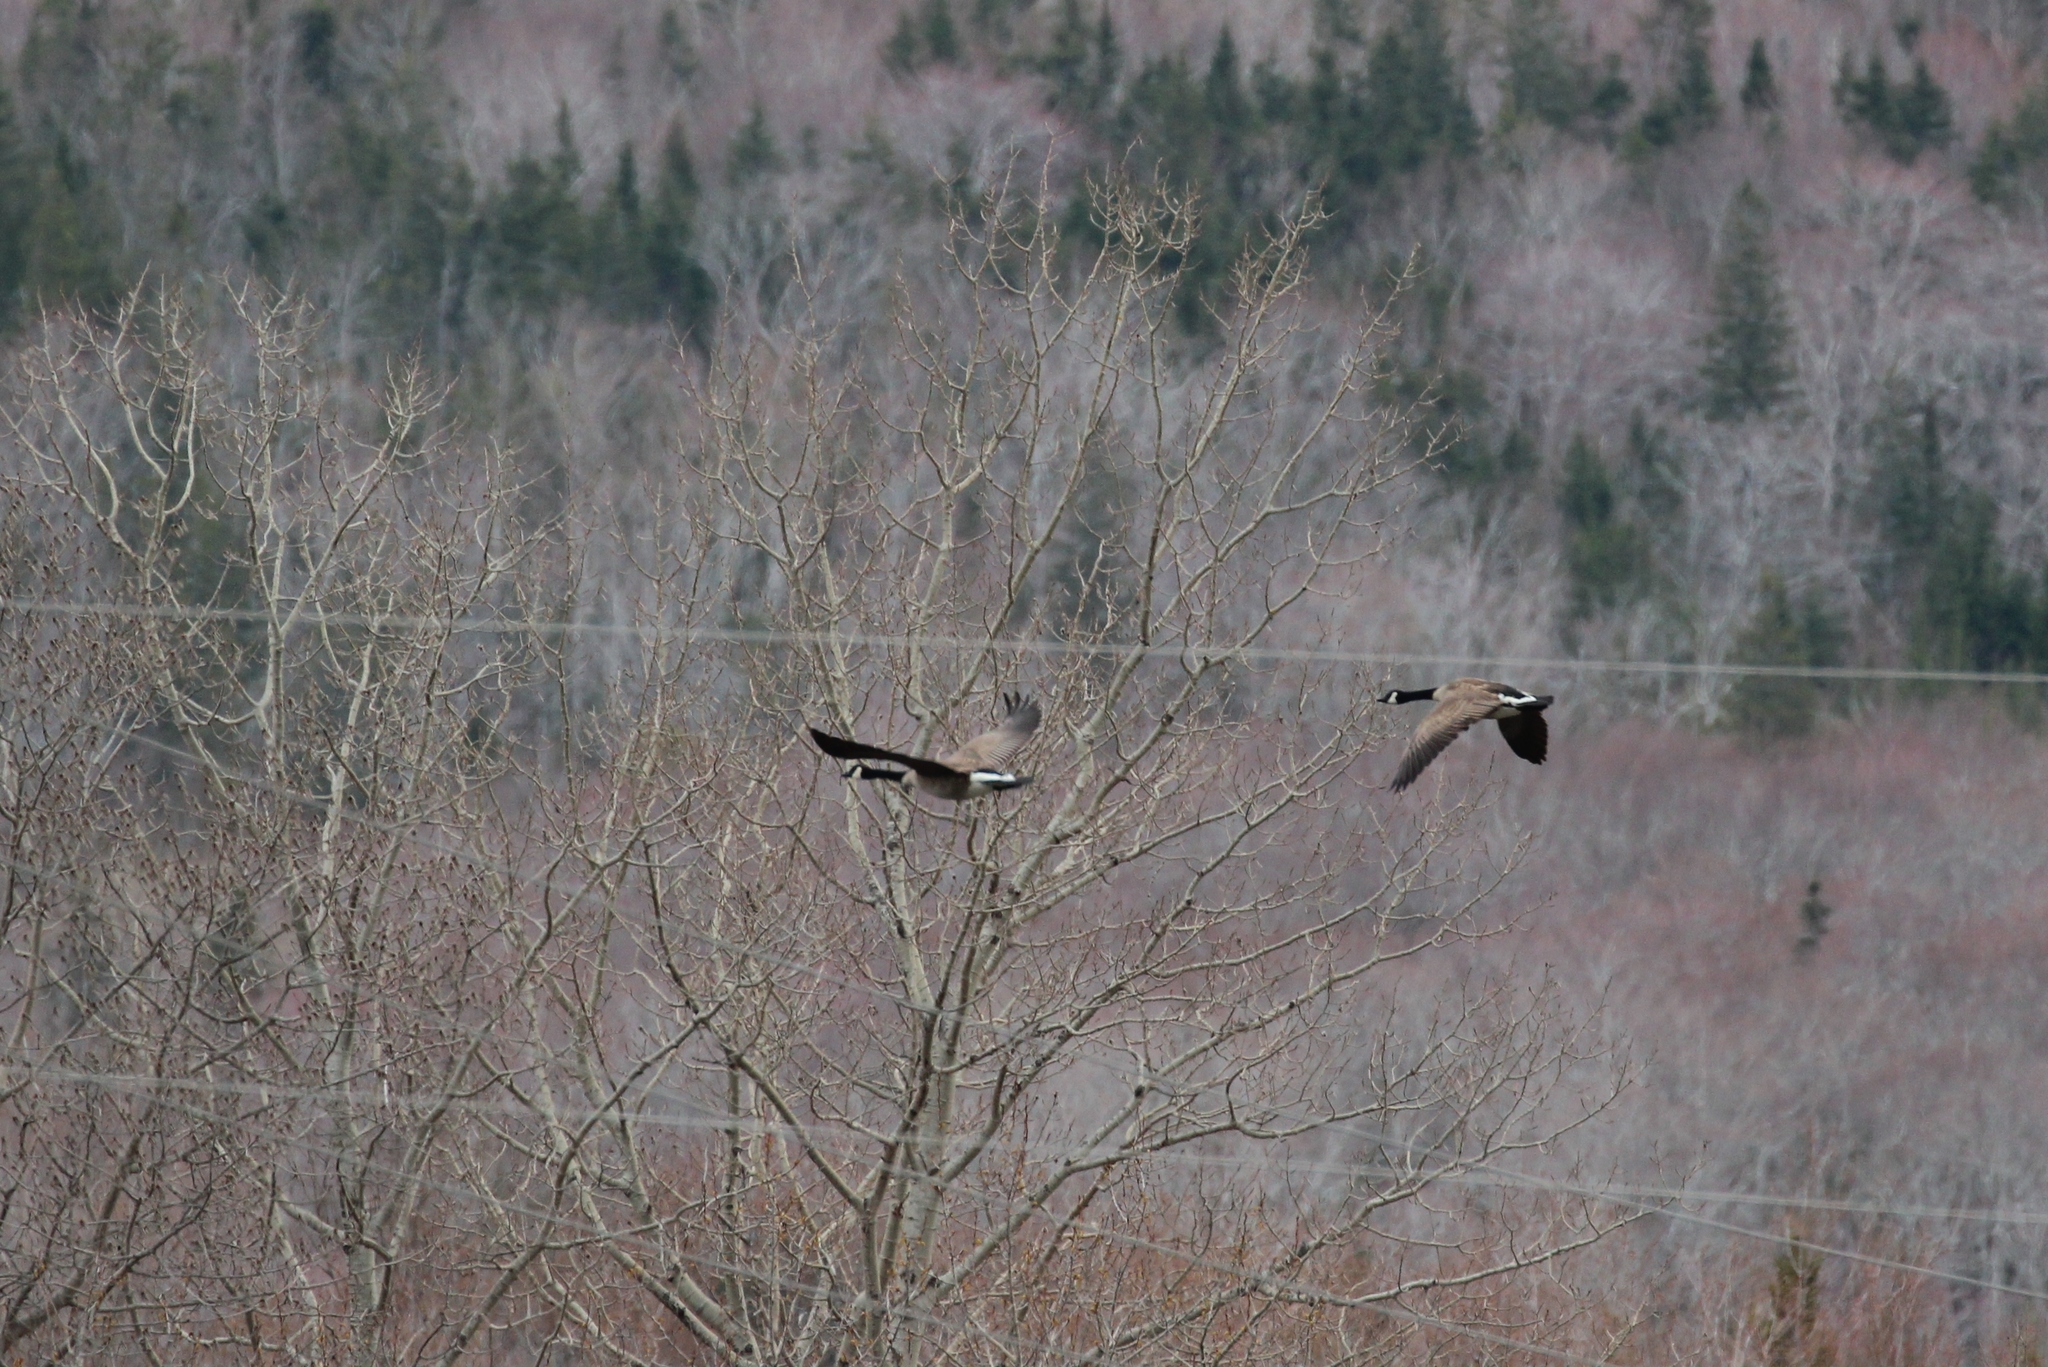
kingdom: Animalia
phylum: Chordata
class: Aves
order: Anseriformes
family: Anatidae
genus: Branta
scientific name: Branta canadensis
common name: Canada goose
